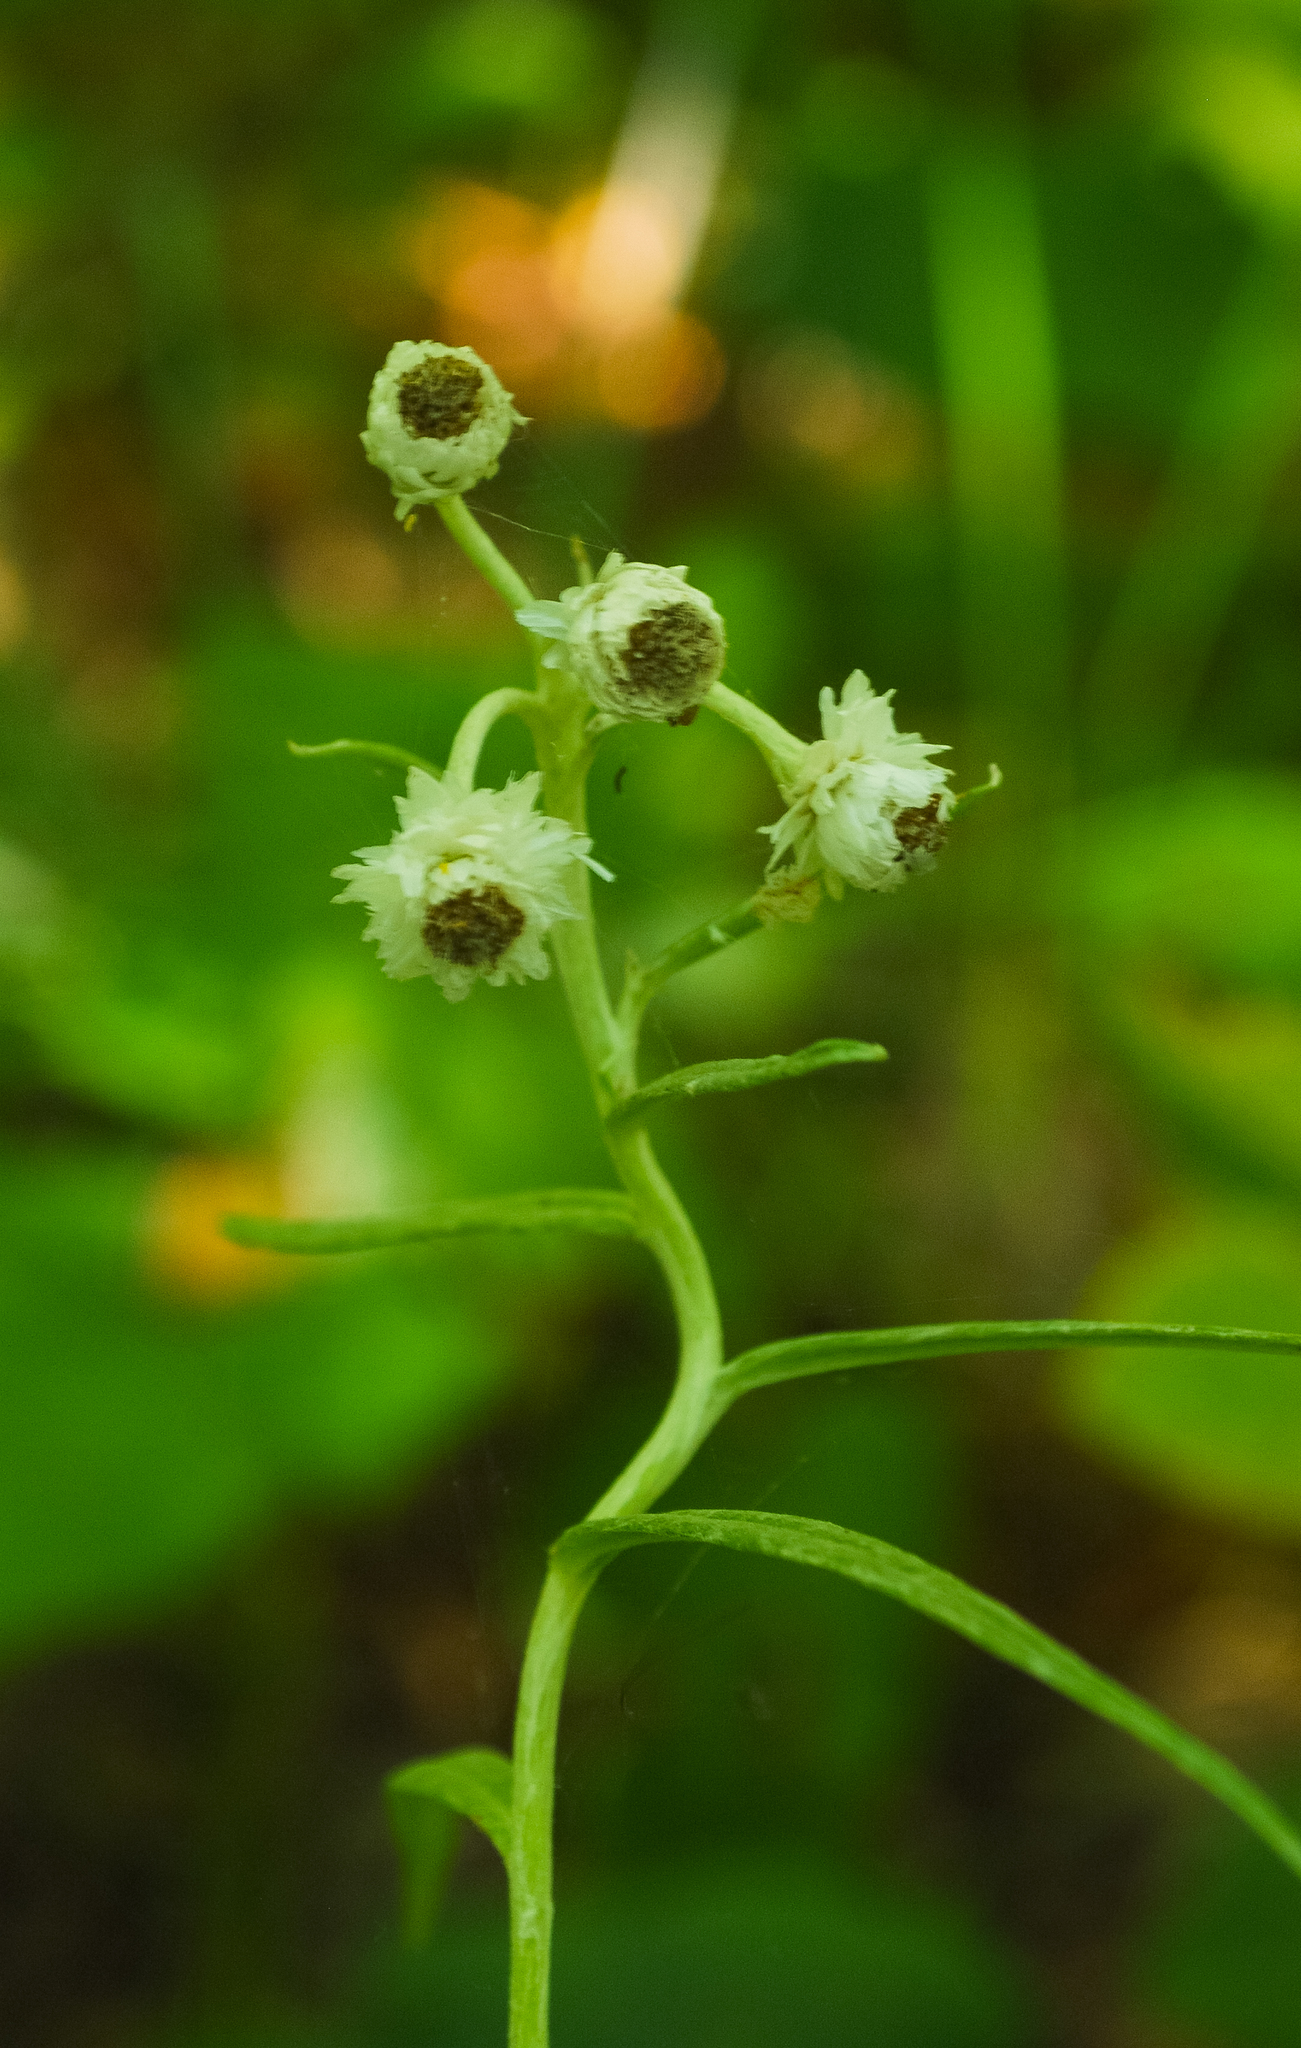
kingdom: Plantae
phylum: Tracheophyta
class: Magnoliopsida
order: Asterales
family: Asteraceae
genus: Anaphalis
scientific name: Anaphalis margaritacea
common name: Pearly everlasting
